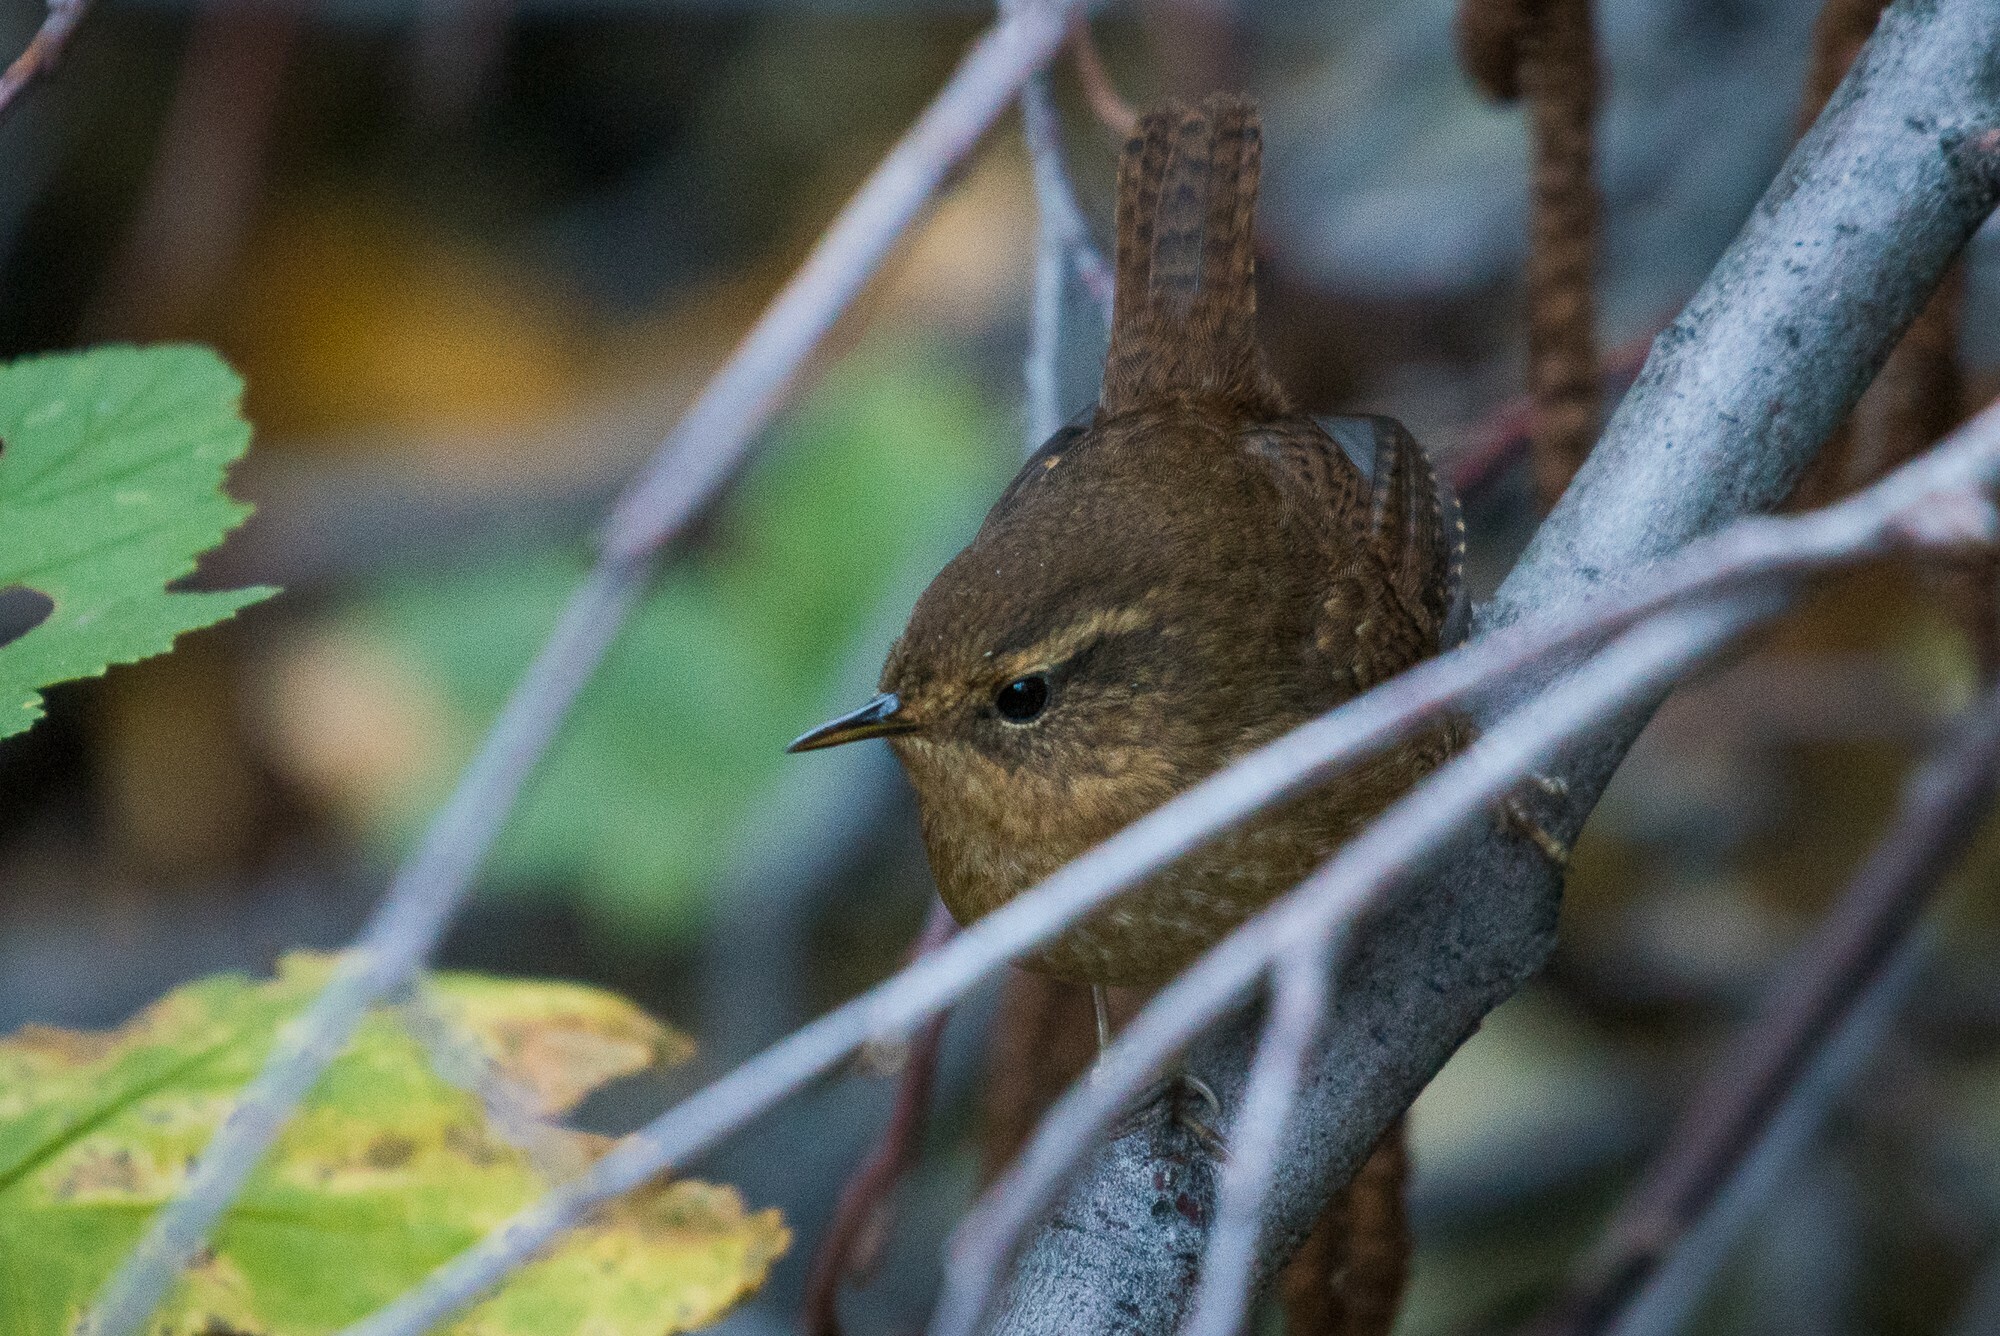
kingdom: Animalia
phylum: Chordata
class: Aves
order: Passeriformes
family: Troglodytidae
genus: Troglodytes
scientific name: Troglodytes pacificus
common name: Pacific wren
